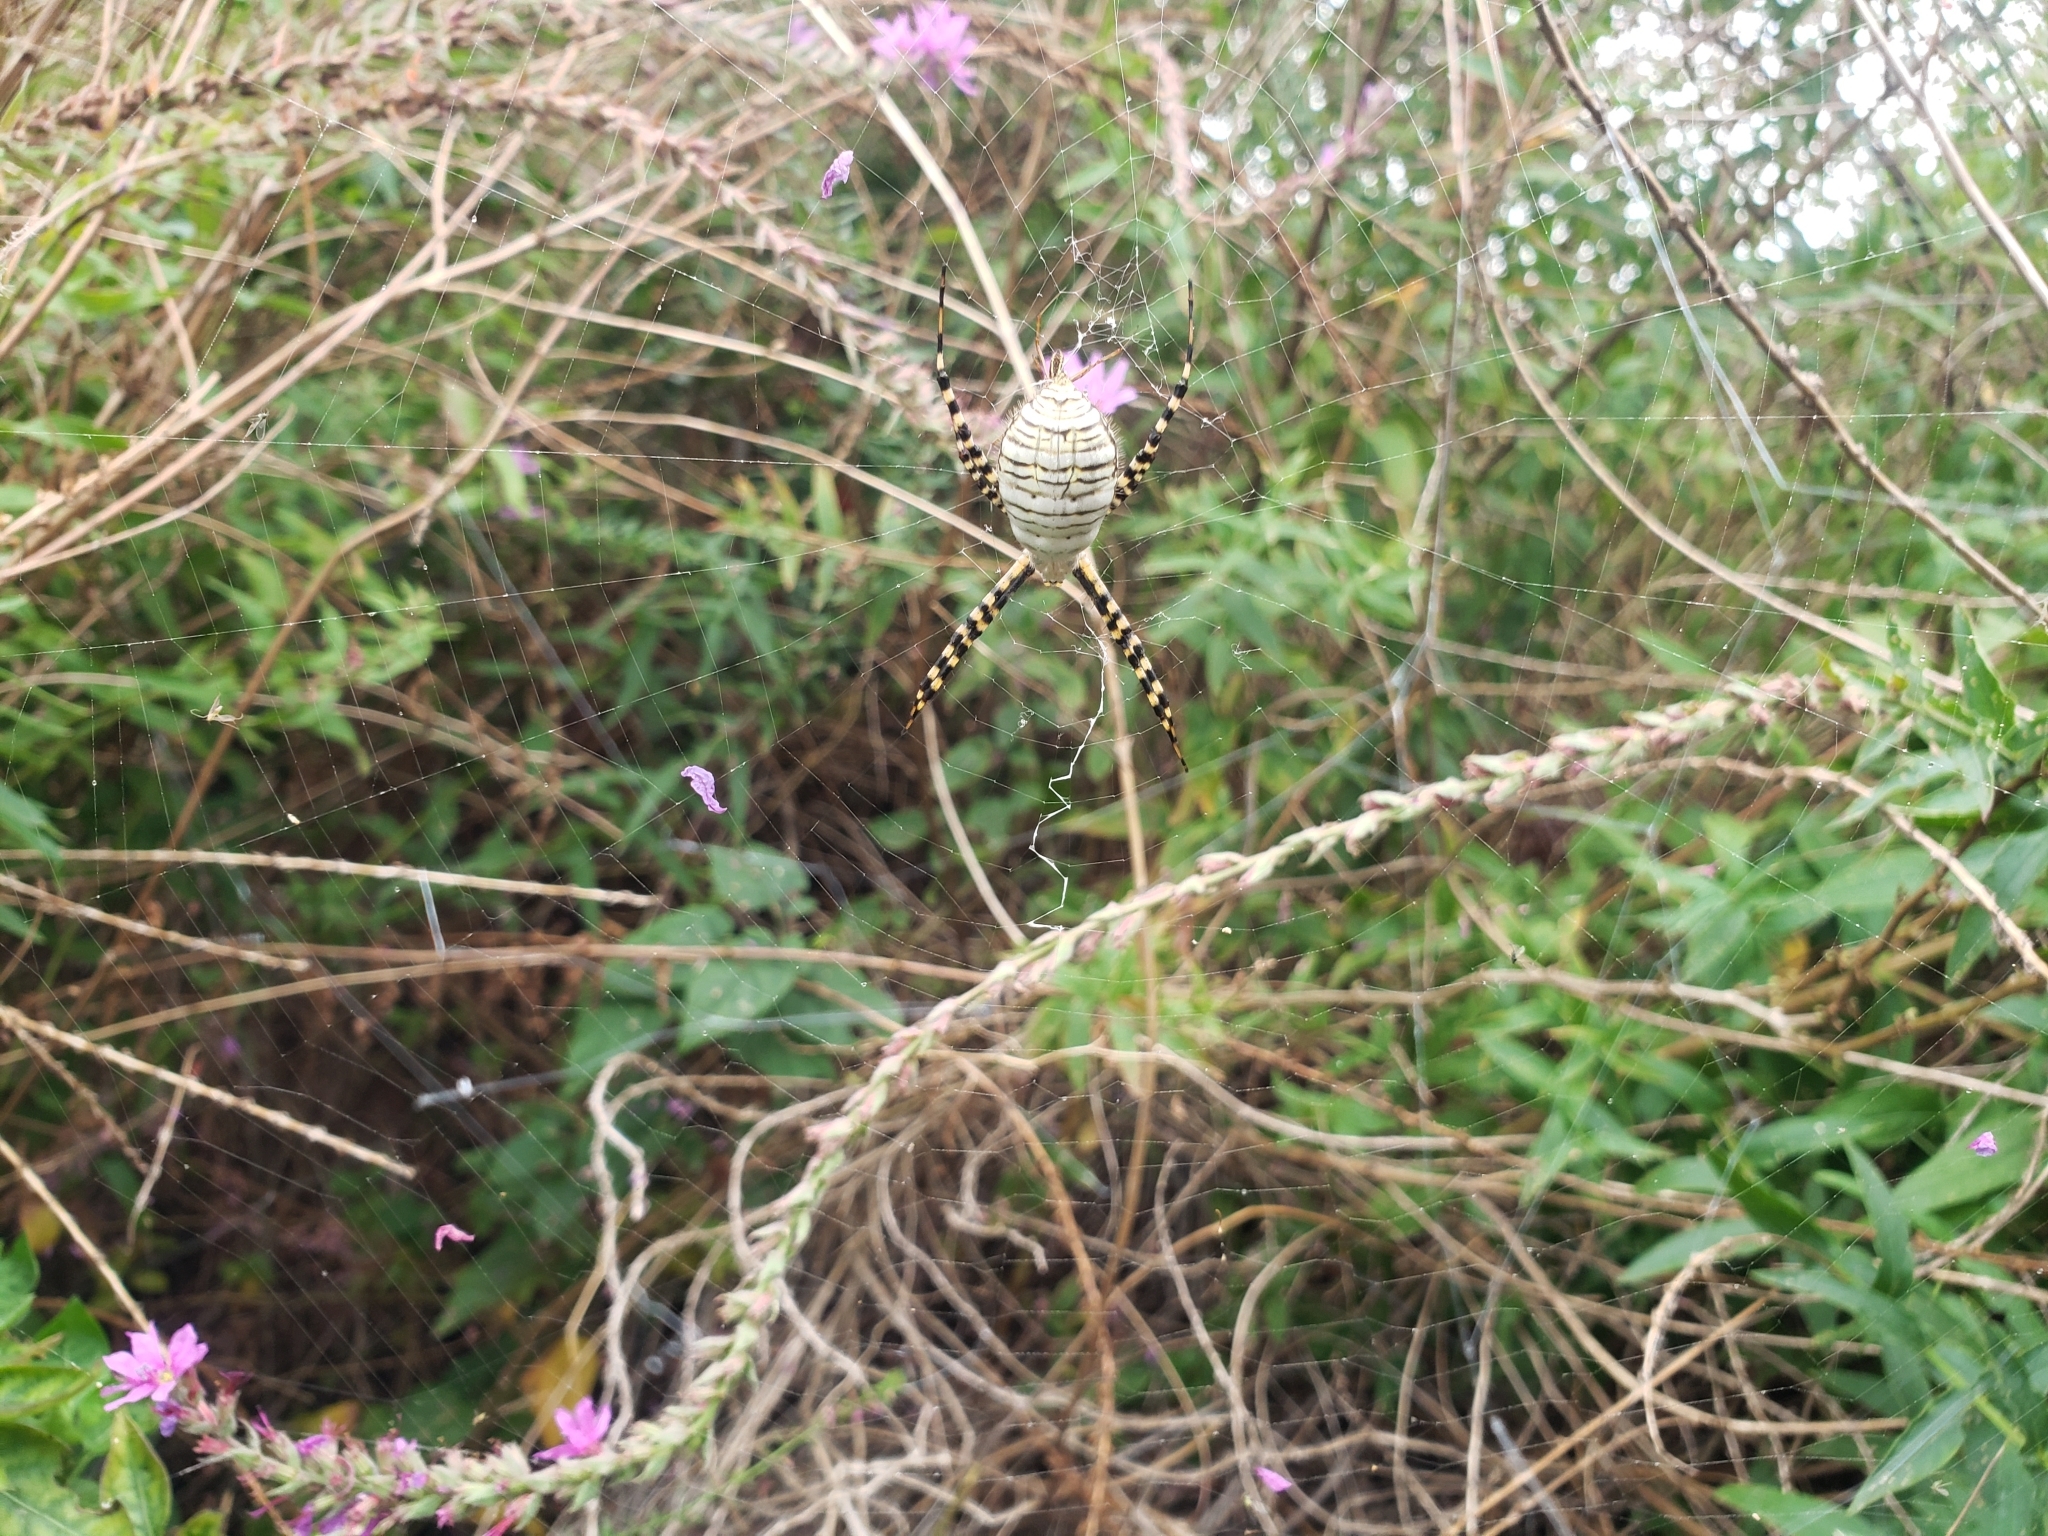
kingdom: Animalia
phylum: Arthropoda
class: Arachnida
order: Araneae
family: Araneidae
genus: Argiope
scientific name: Argiope trifasciata
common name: Banded garden spider
